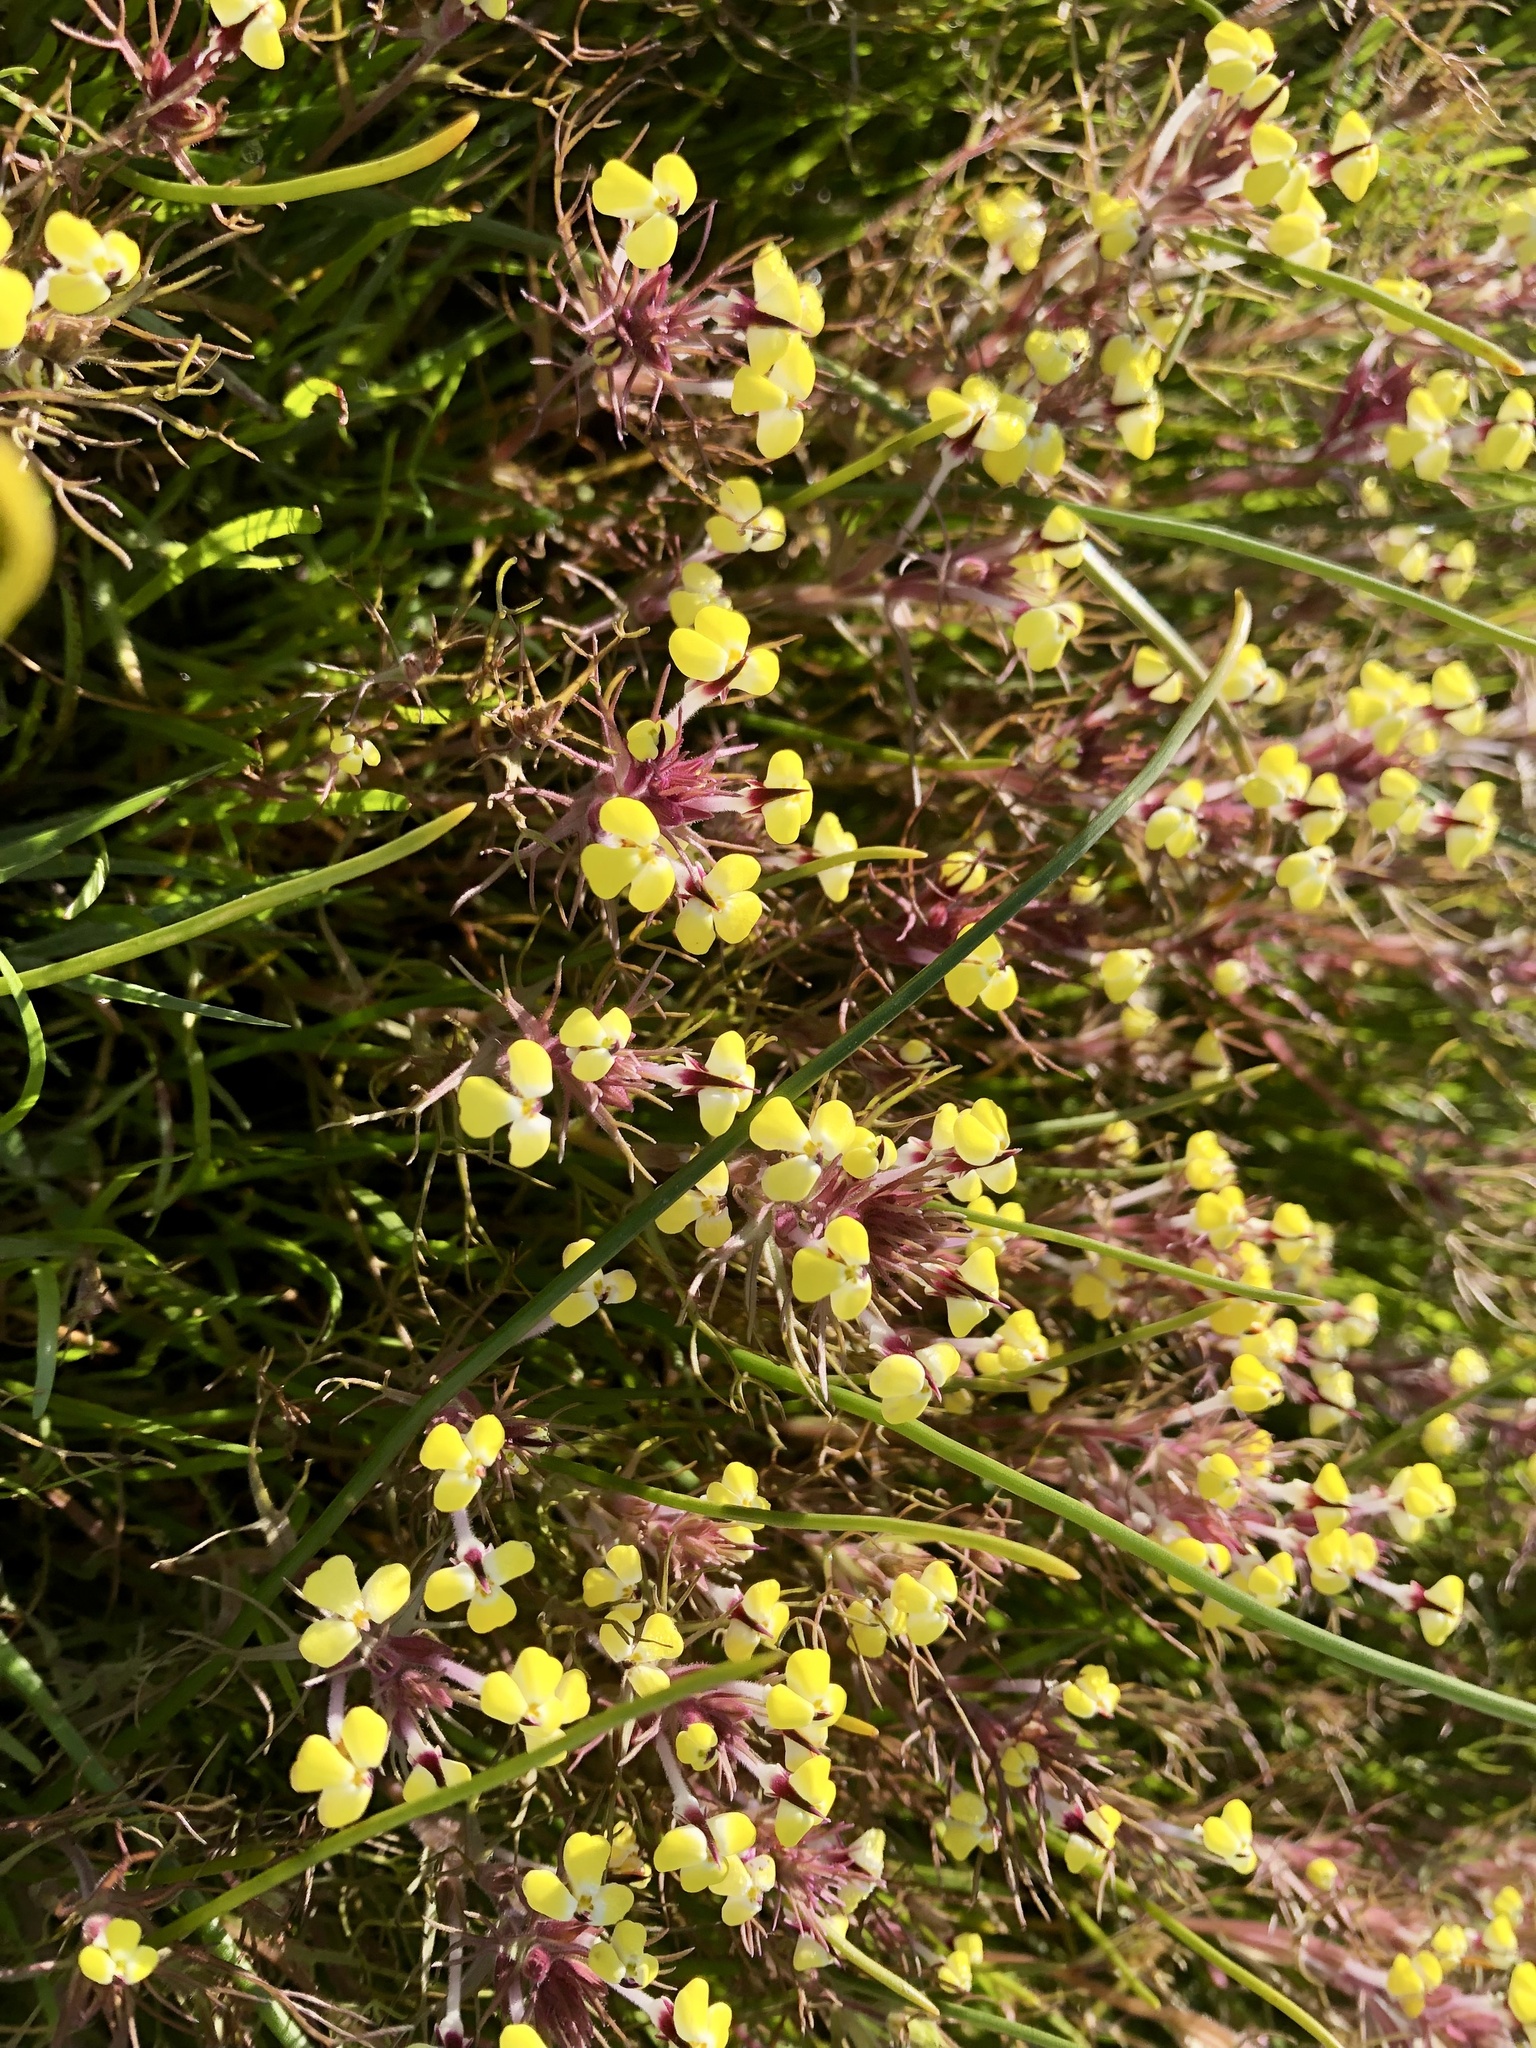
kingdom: Plantae
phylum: Tracheophyta
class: Magnoliopsida
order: Lamiales
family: Orobanchaceae
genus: Triphysaria
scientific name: Triphysaria eriantha
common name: Johnny-tuck
